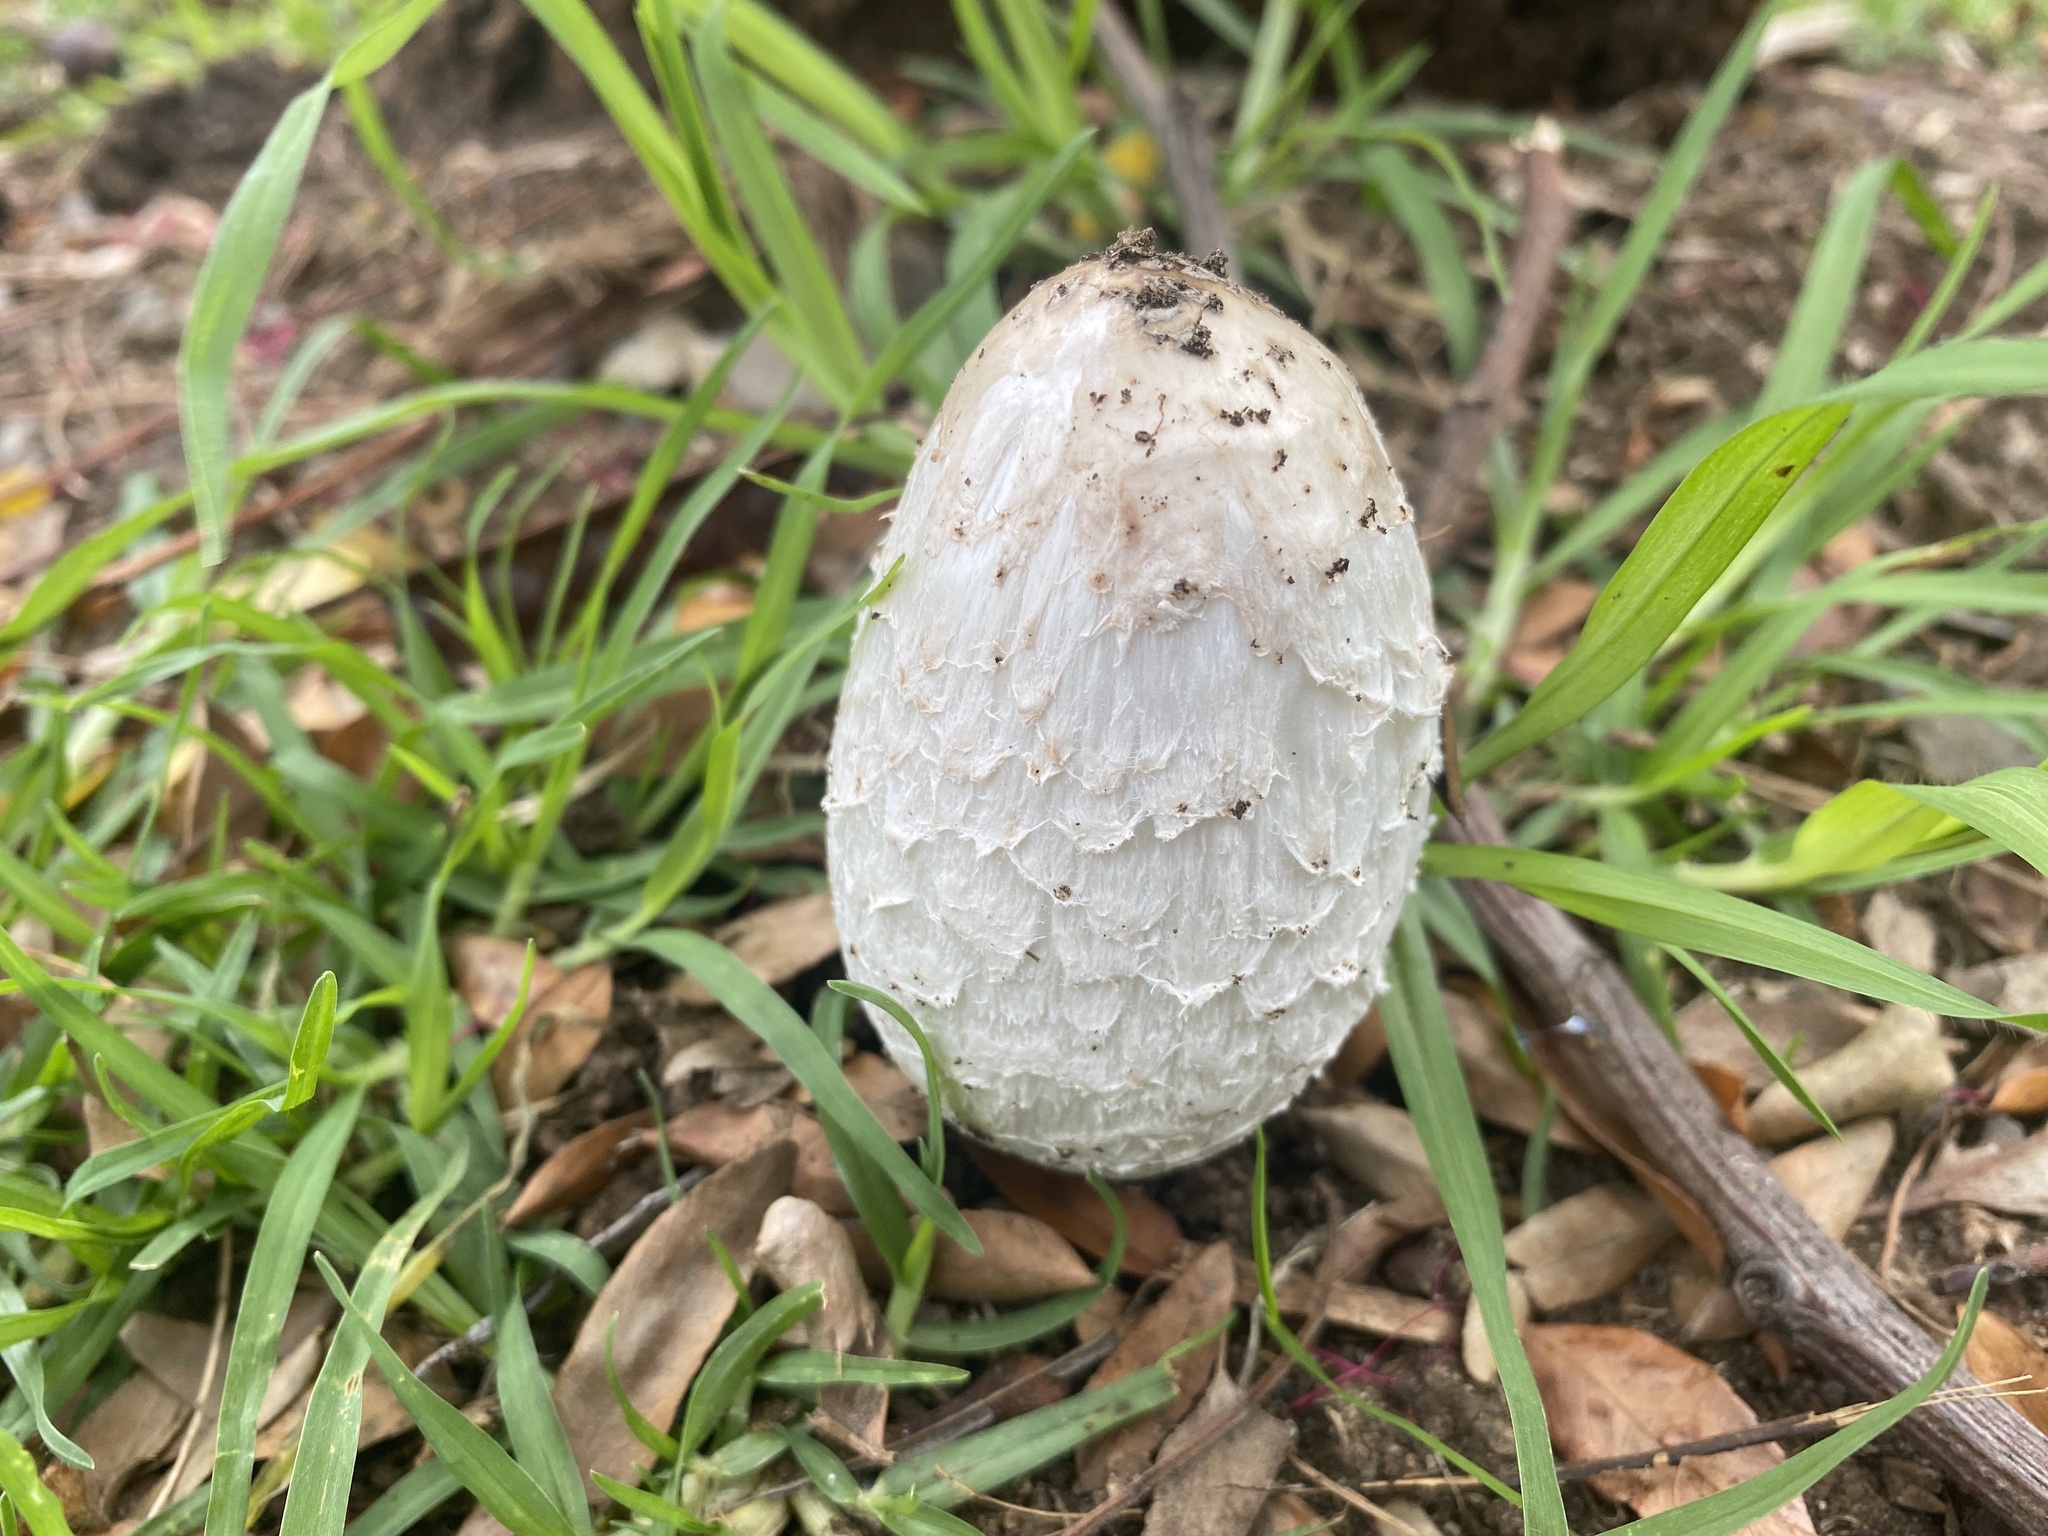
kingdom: Fungi
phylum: Basidiomycota
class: Agaricomycetes
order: Agaricales
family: Agaricaceae
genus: Coprinus
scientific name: Coprinus comatus
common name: Lawyer's wig
